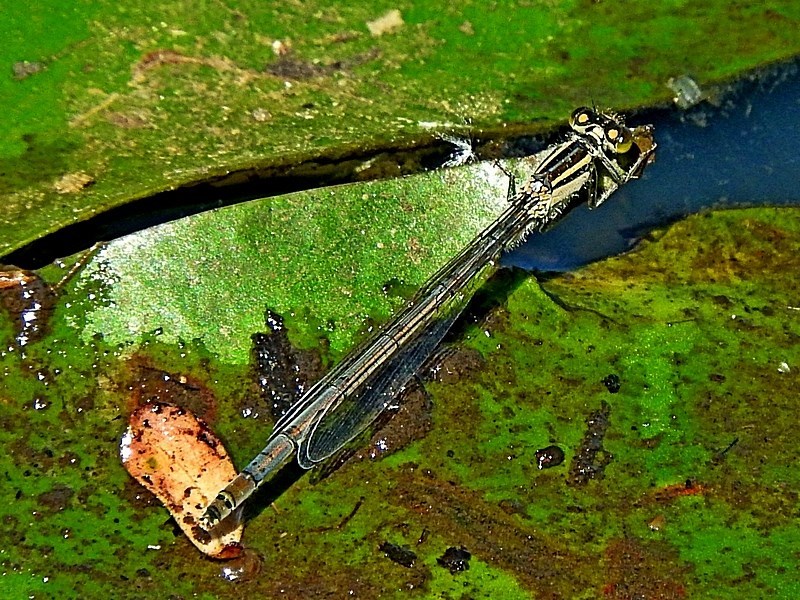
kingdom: Animalia
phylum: Arthropoda
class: Insecta
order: Odonata
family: Coenagrionidae
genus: Ischnura
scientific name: Ischnura heterosticta
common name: Common bluetail
